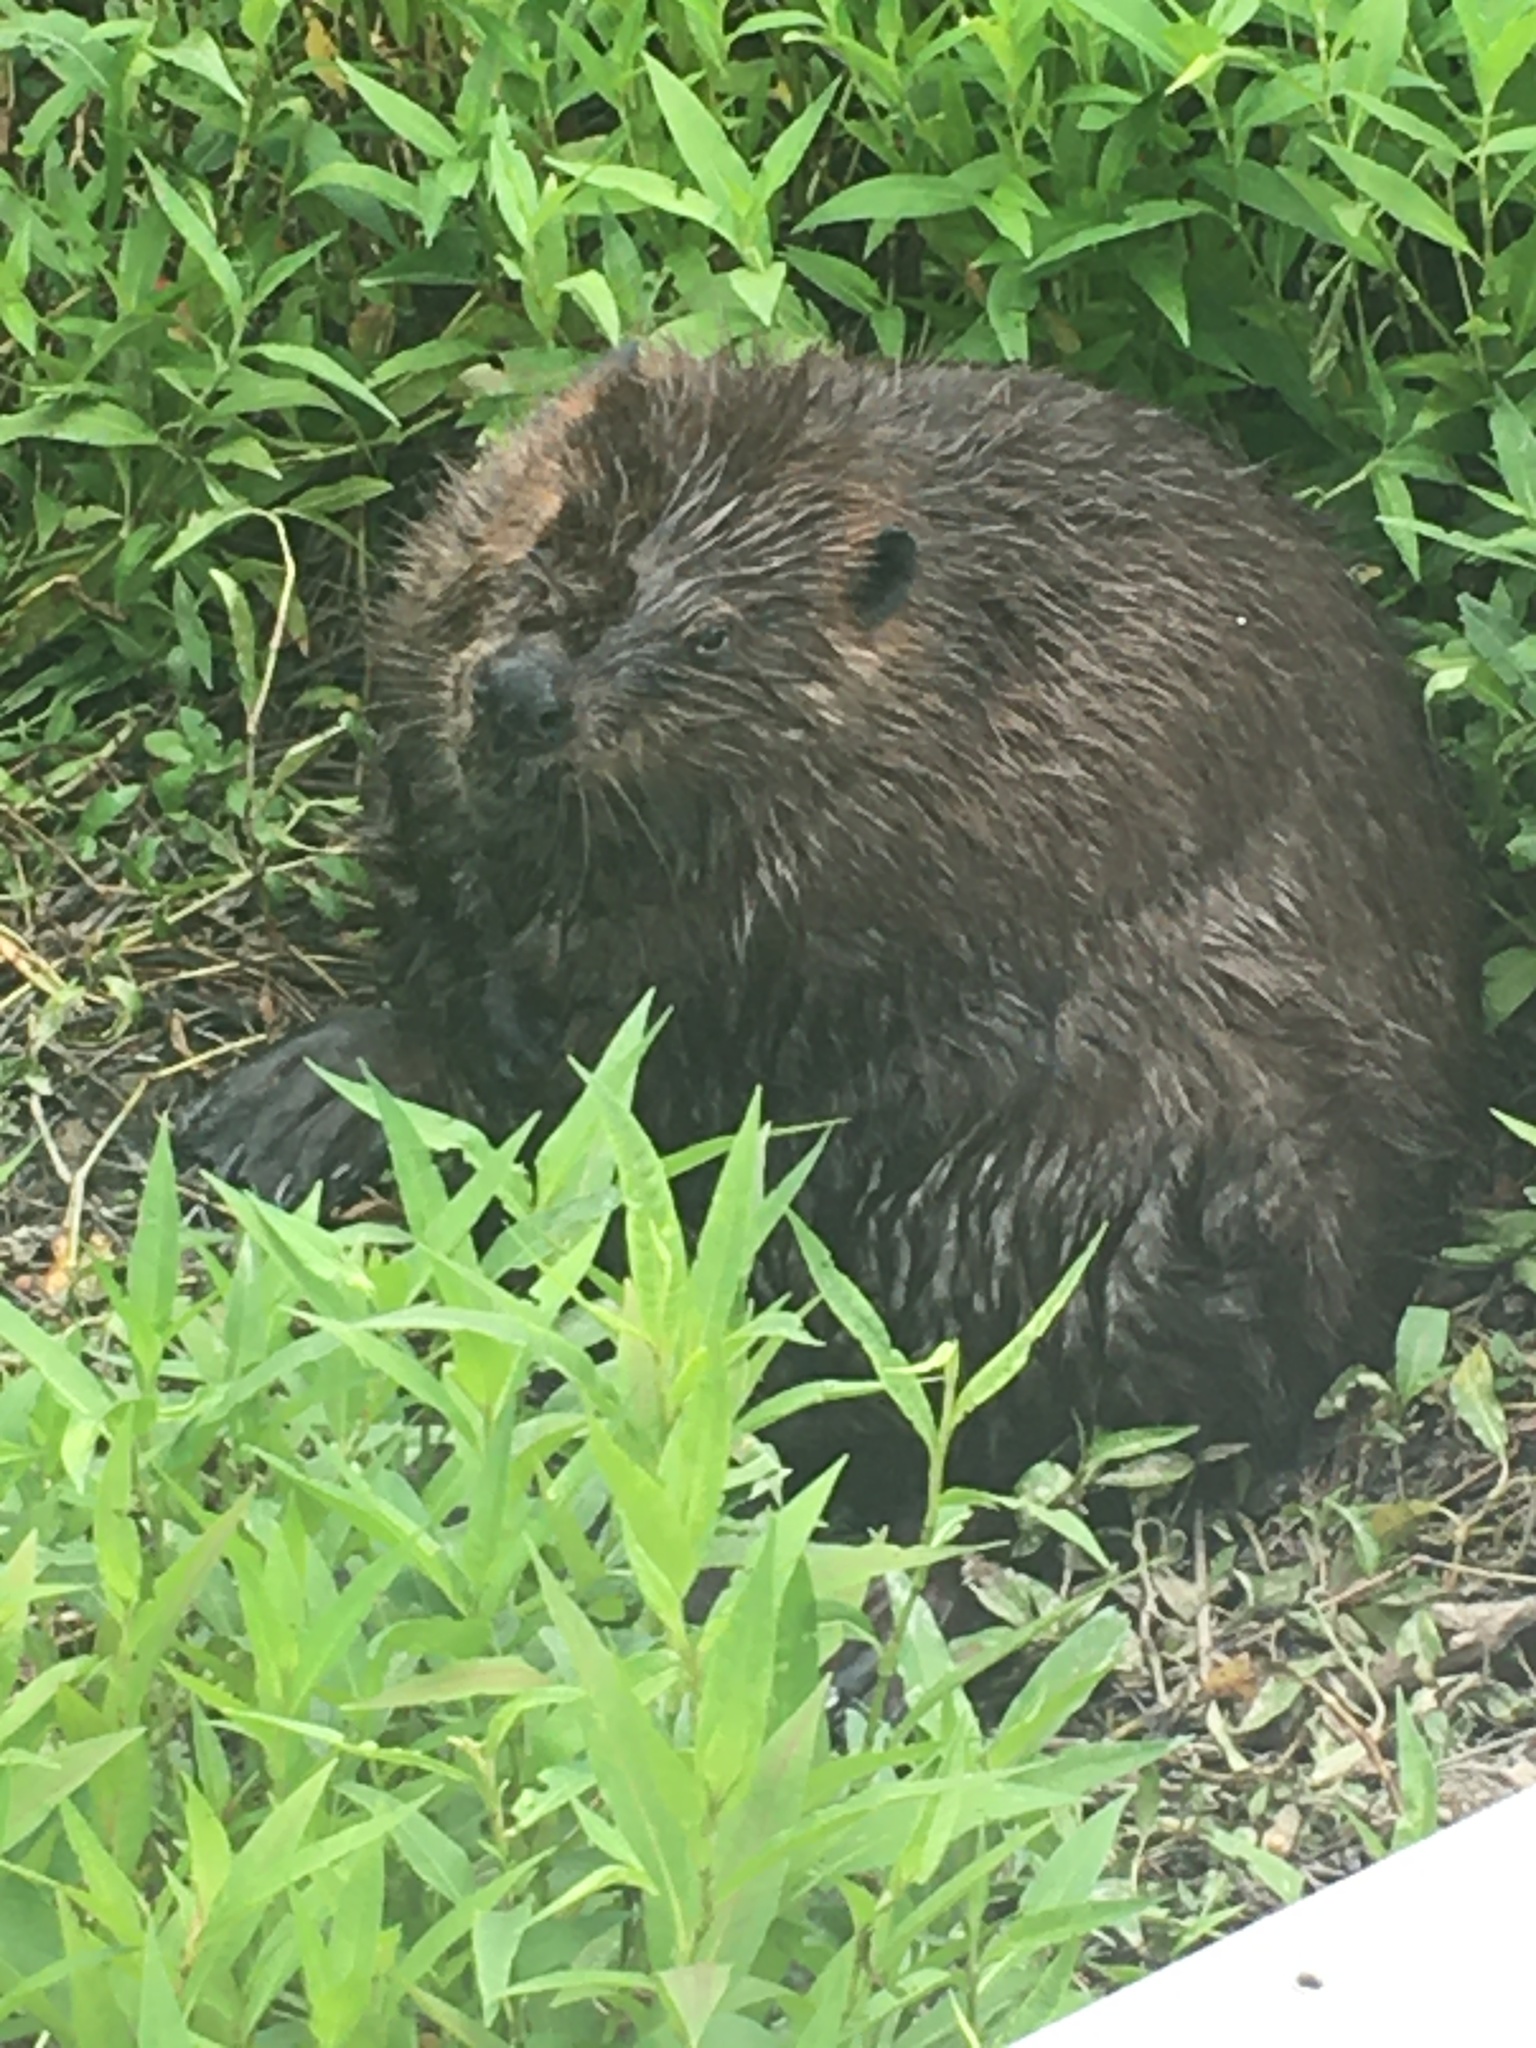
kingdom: Animalia
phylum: Chordata
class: Mammalia
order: Rodentia
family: Castoridae
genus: Castor
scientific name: Castor canadensis
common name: American beaver
